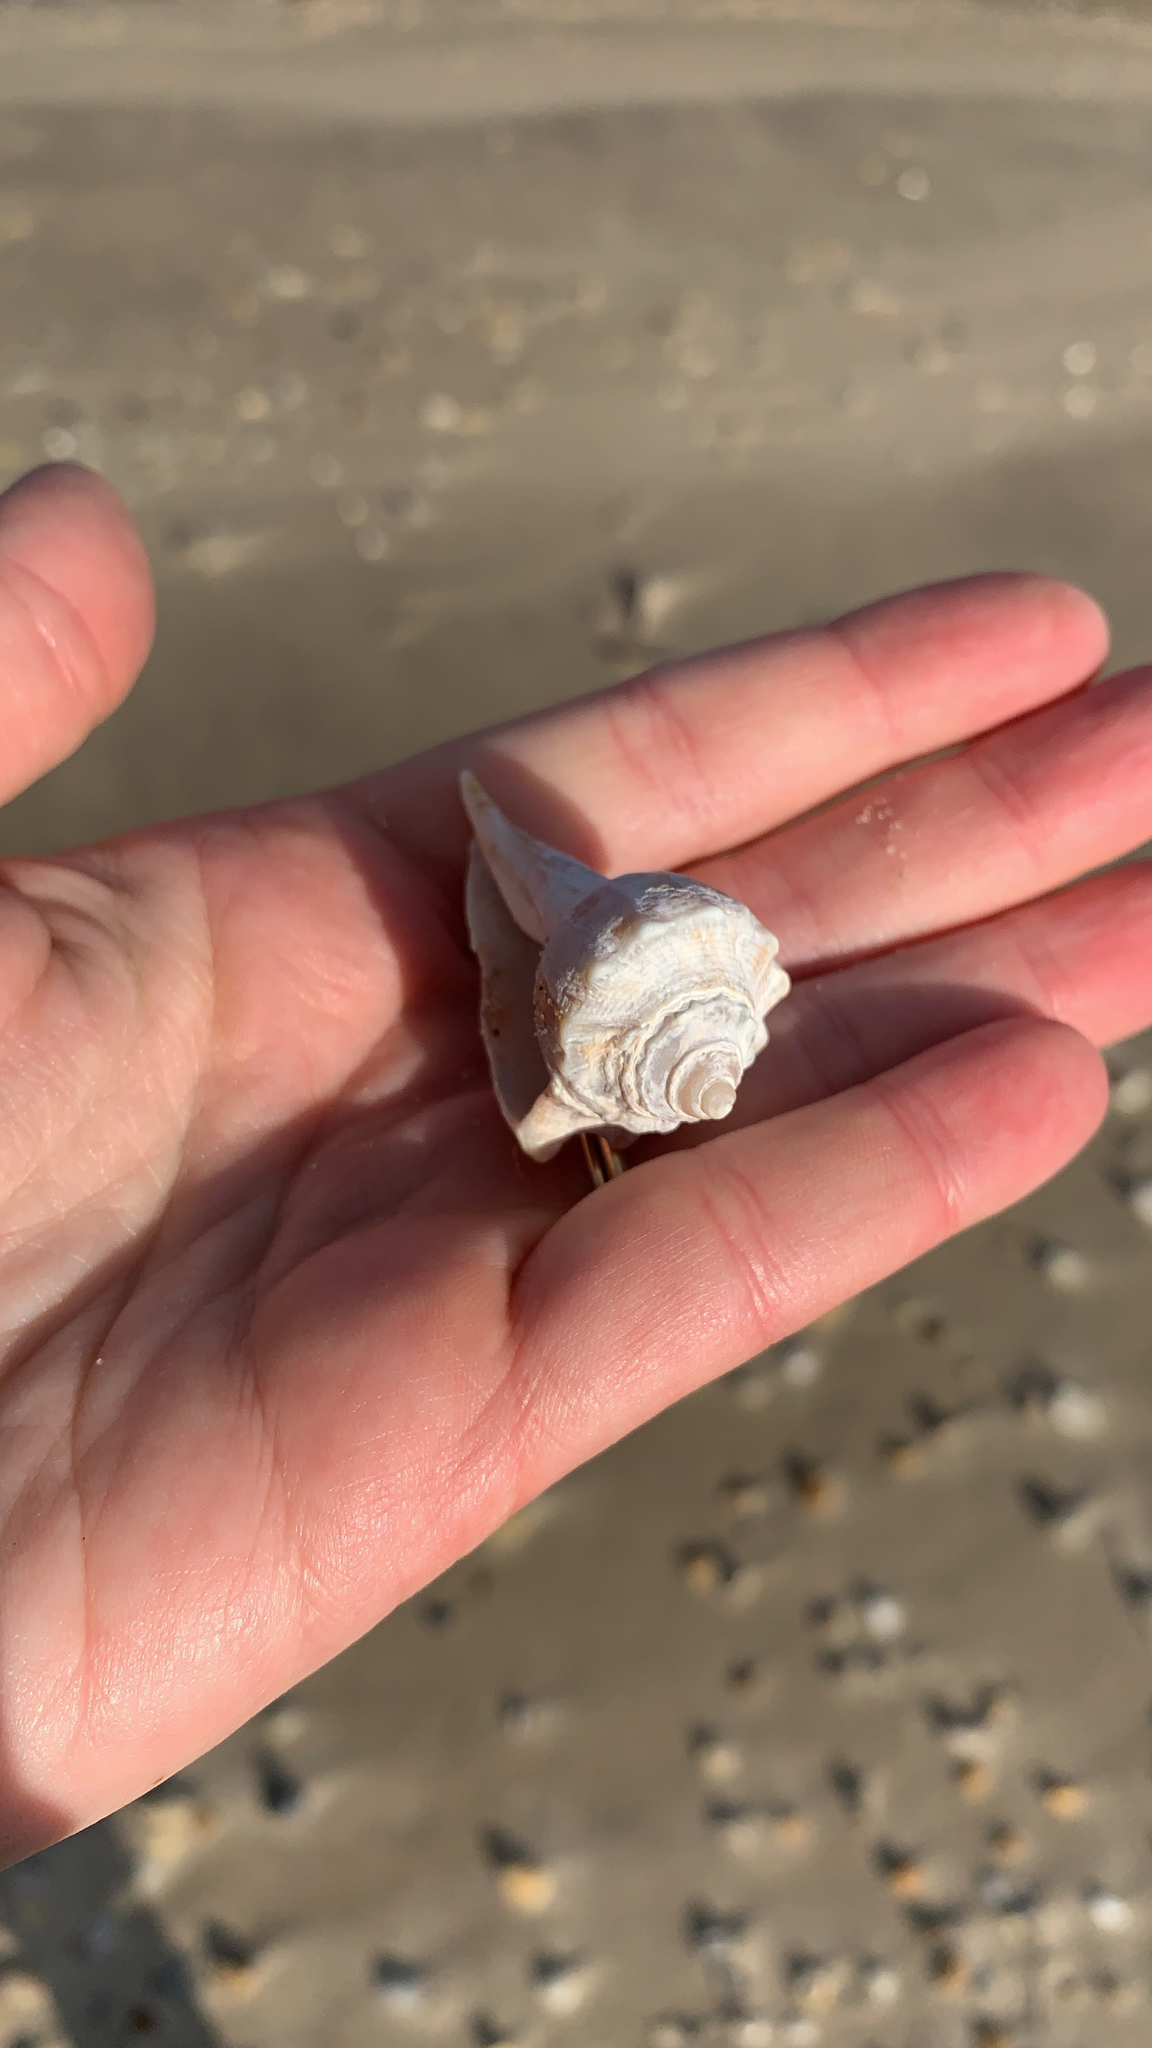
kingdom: Animalia
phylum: Mollusca
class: Gastropoda
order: Neogastropoda
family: Busyconidae
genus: Busycon
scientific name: Busycon carica
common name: Knobbed whelk
